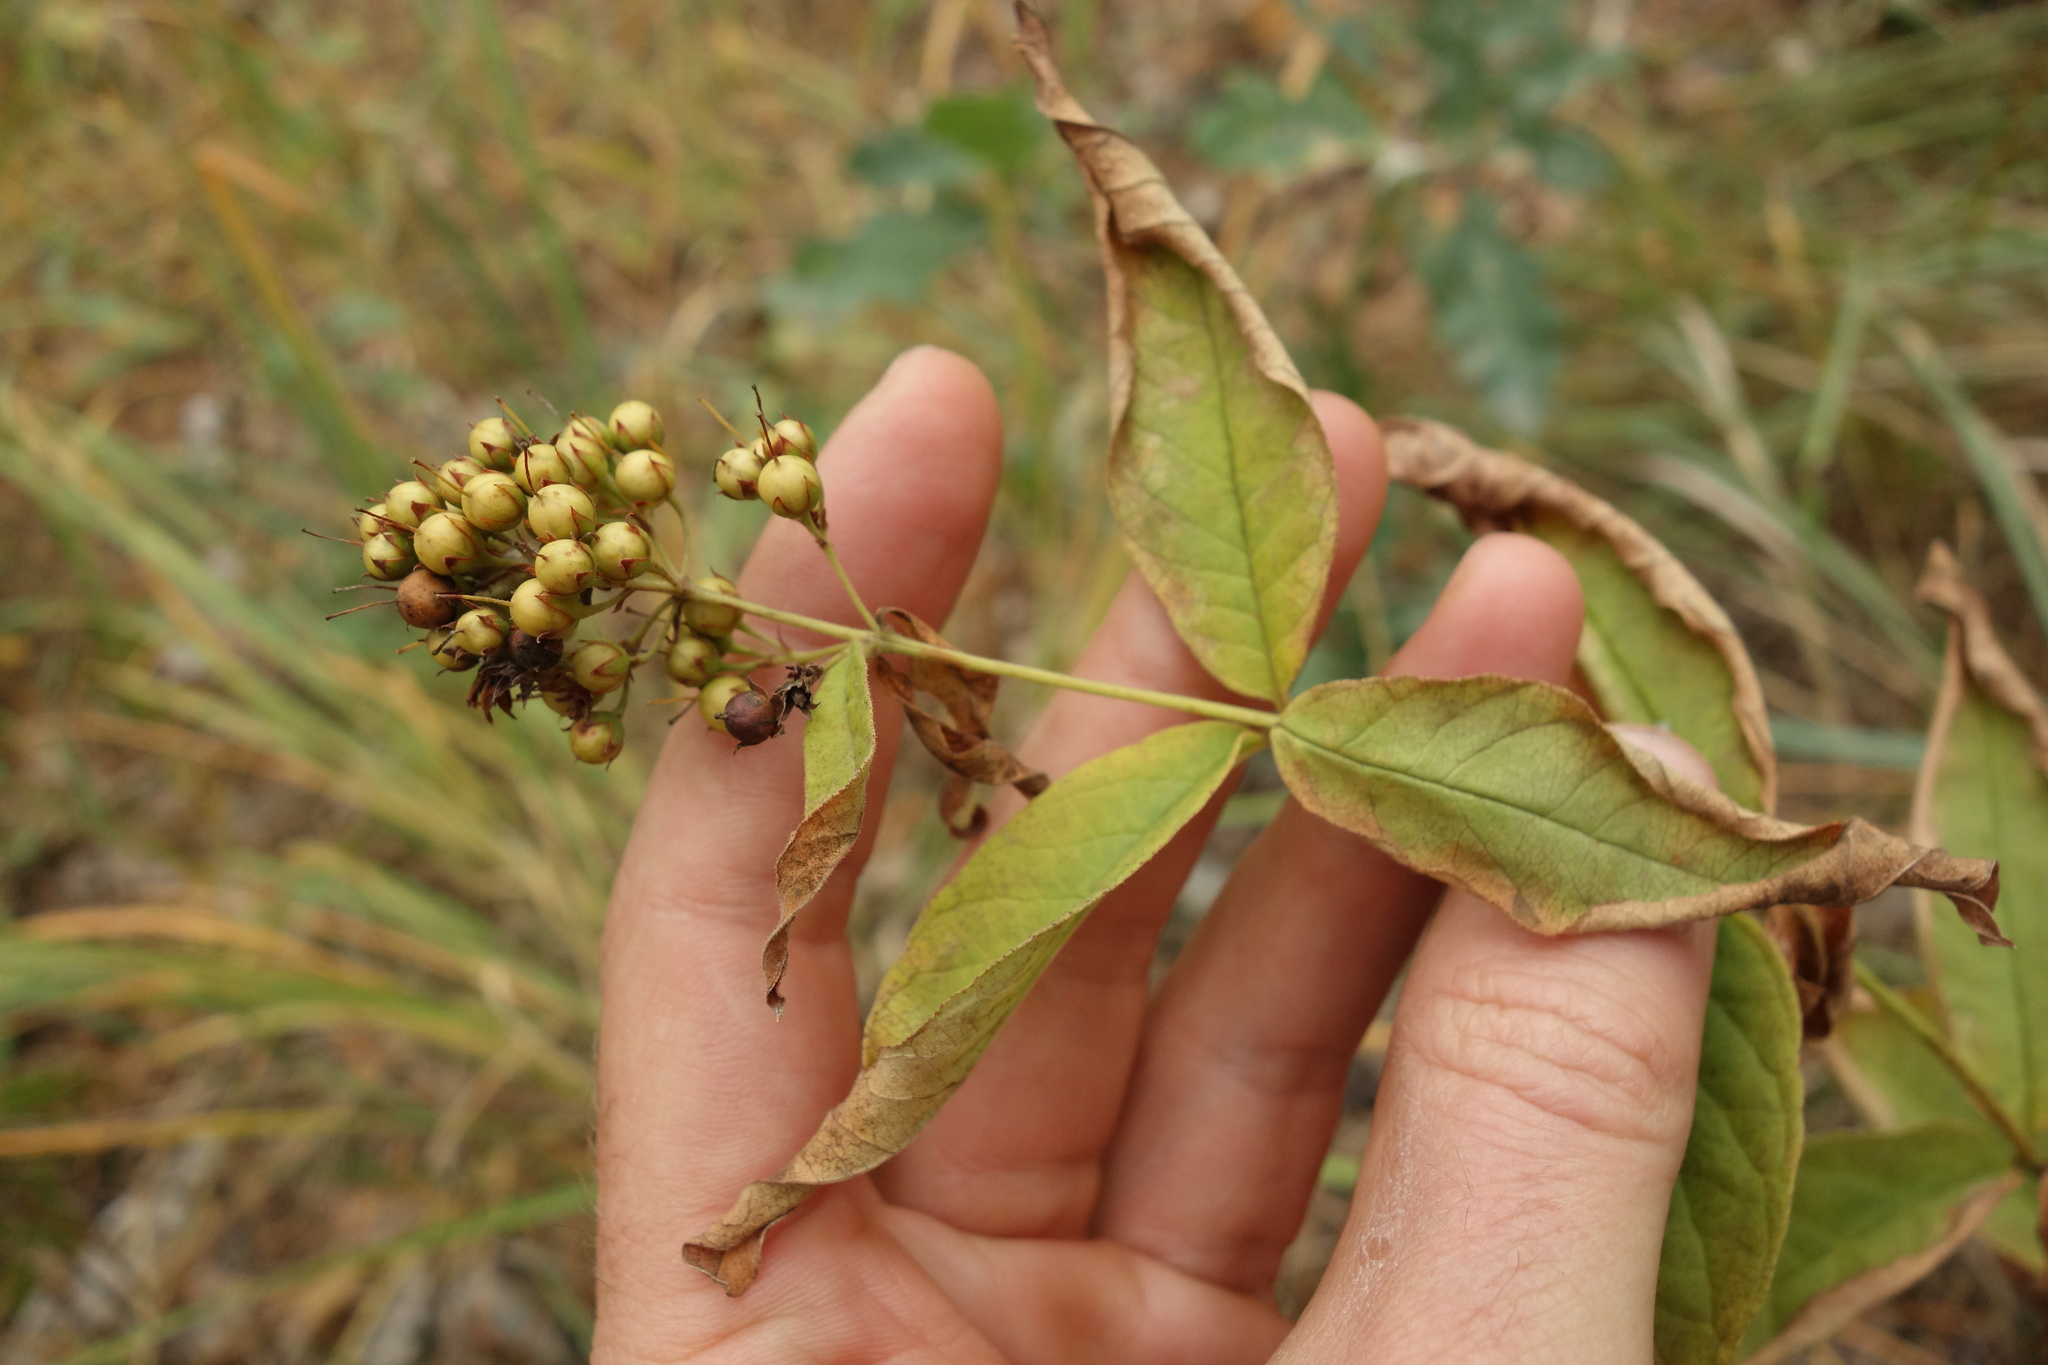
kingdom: Plantae
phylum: Tracheophyta
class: Magnoliopsida
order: Ericales
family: Primulaceae
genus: Lysimachia
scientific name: Lysimachia vulgaris
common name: Yellow loosestrife
